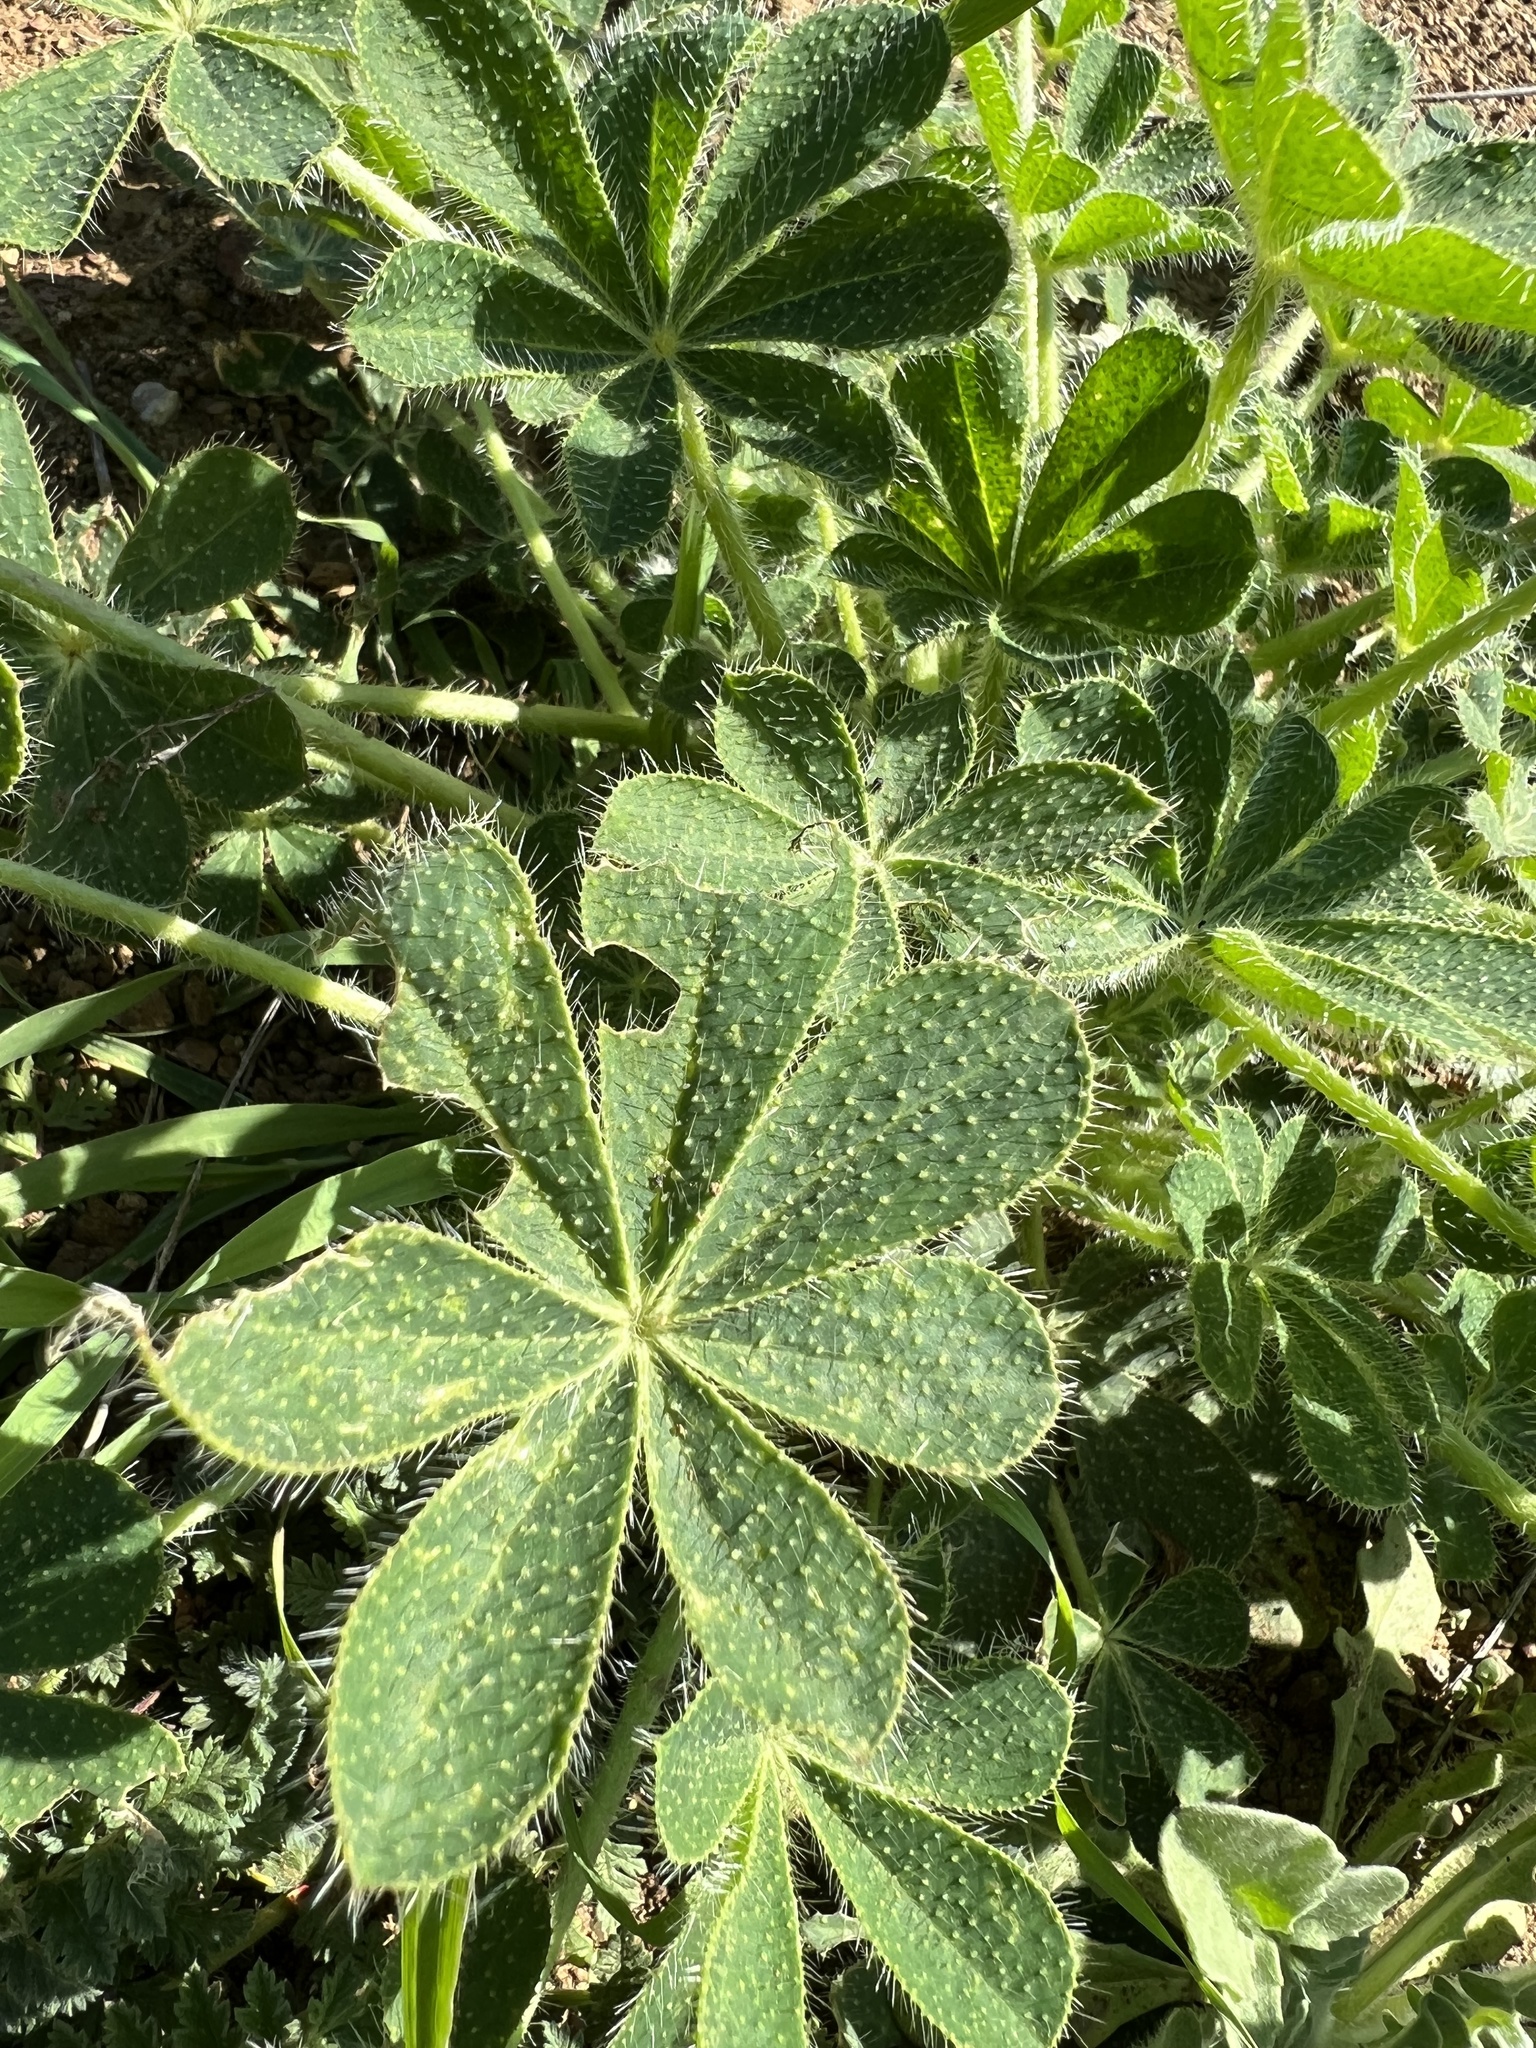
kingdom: Plantae
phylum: Tracheophyta
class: Magnoliopsida
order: Fabales
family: Fabaceae
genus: Lupinus
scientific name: Lupinus hirsutissimus
